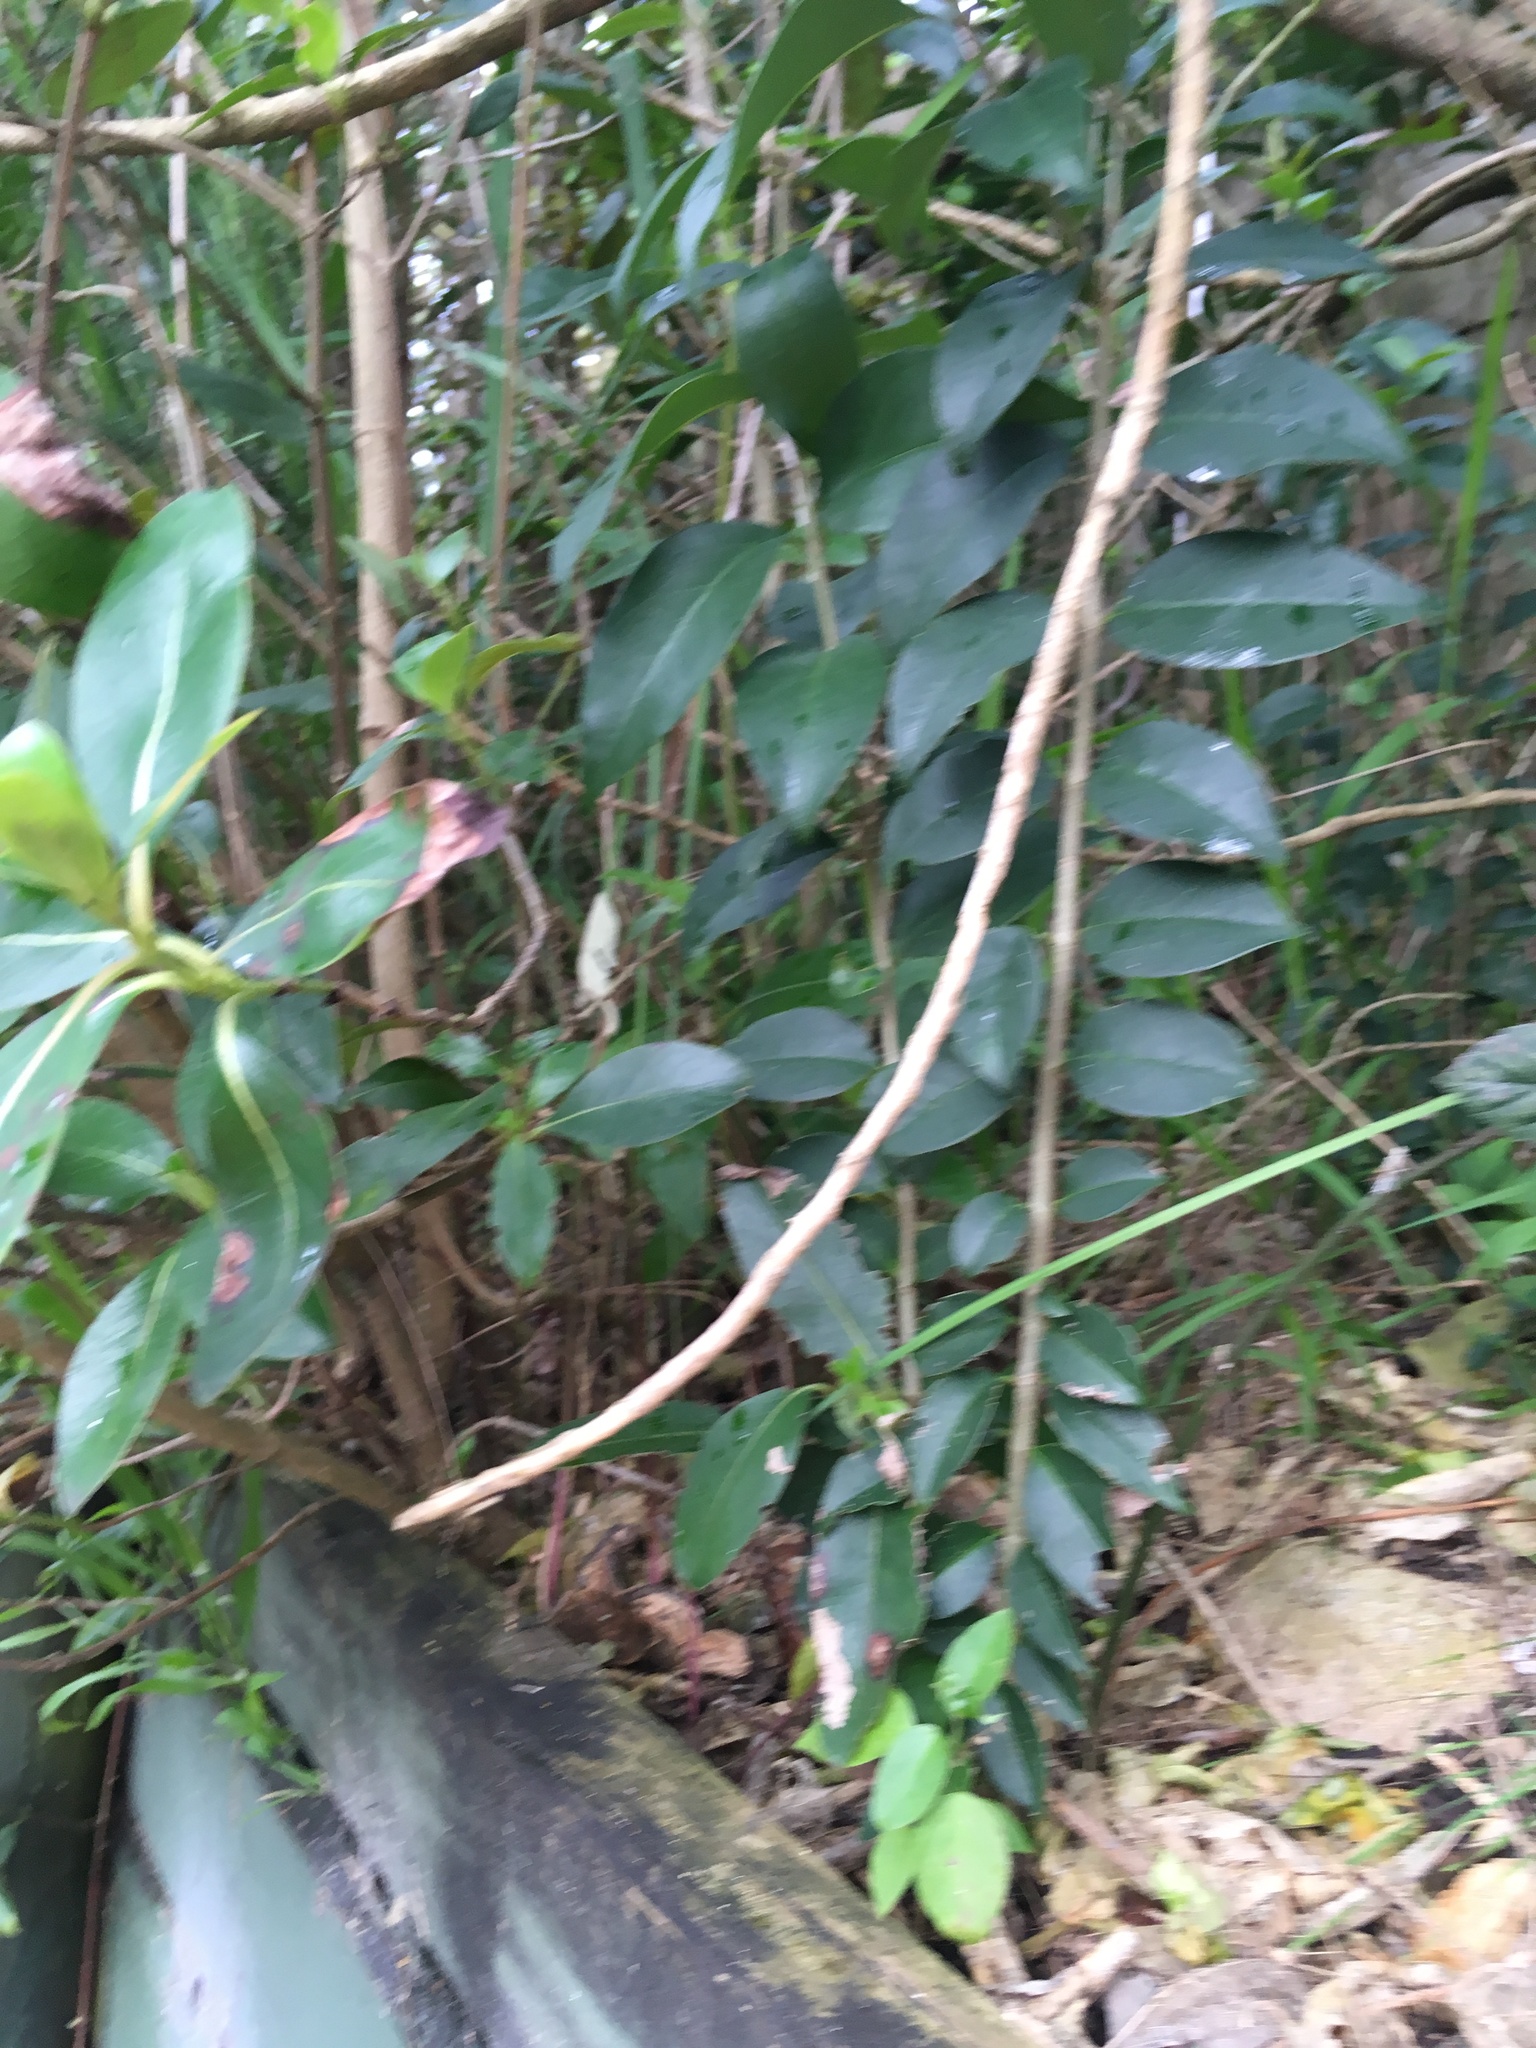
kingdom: Plantae
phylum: Tracheophyta
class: Magnoliopsida
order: Lamiales
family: Oleaceae
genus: Ligustrum
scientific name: Ligustrum lucidum
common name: Glossy privet
